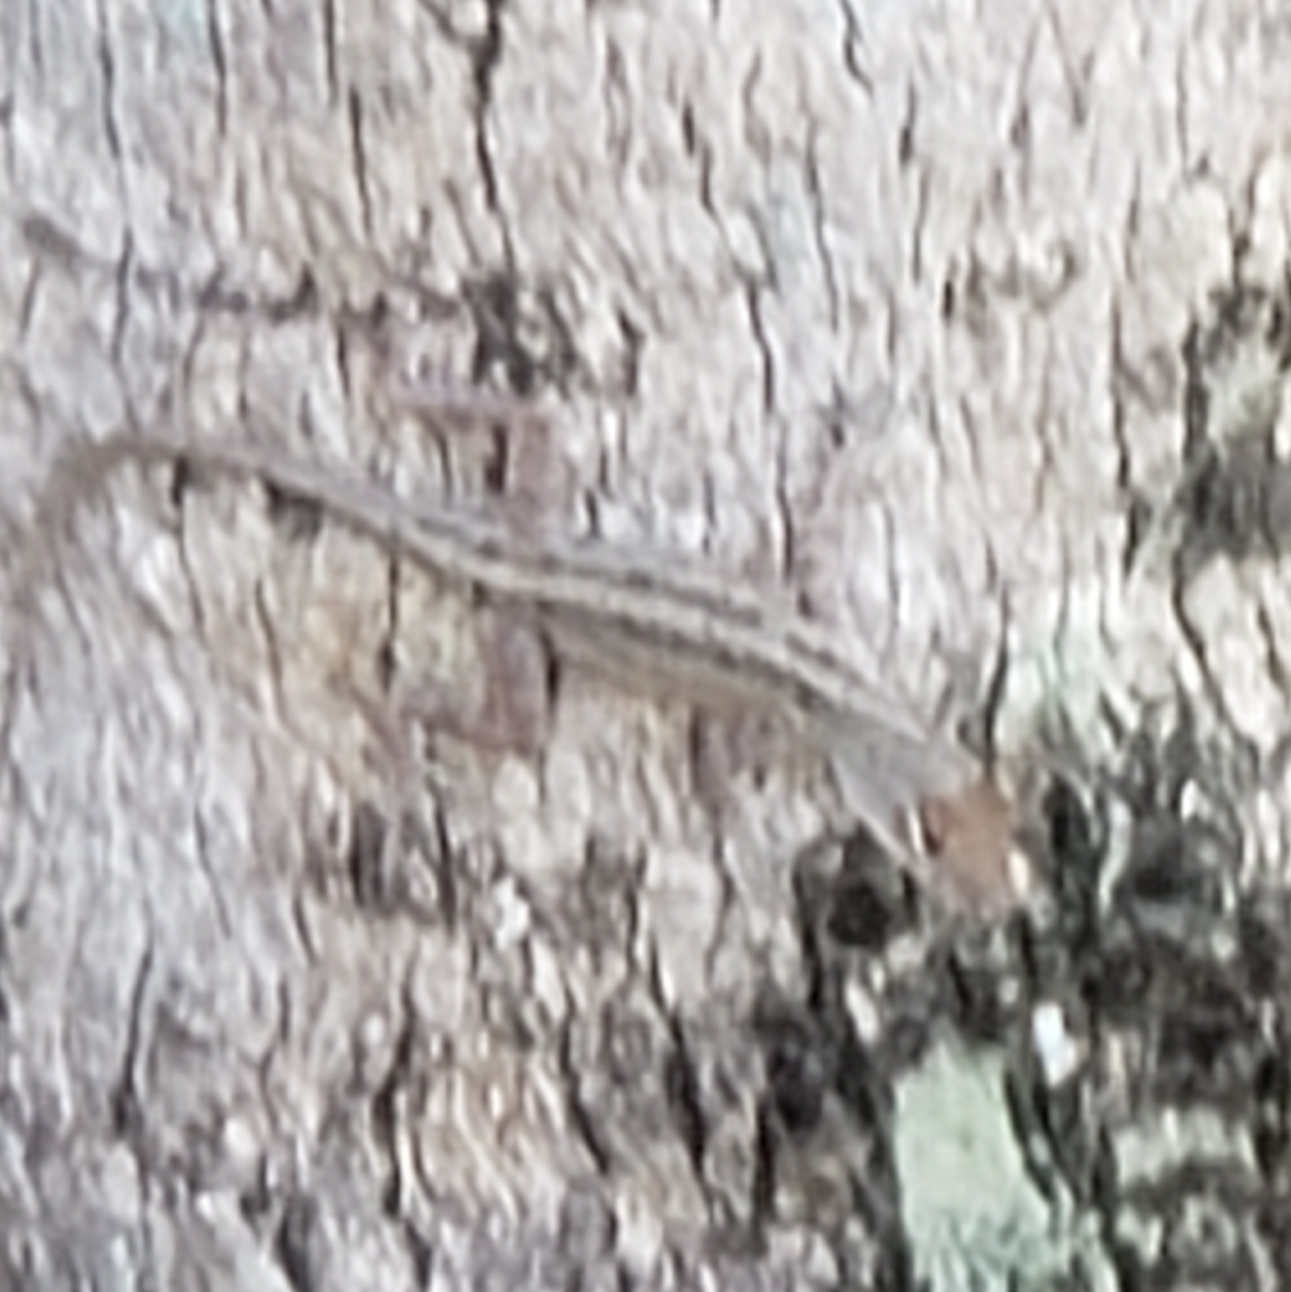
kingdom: Animalia
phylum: Chordata
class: Squamata
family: Dactyloidae
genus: Anolis
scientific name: Anolis sagrei
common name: Brown anole
